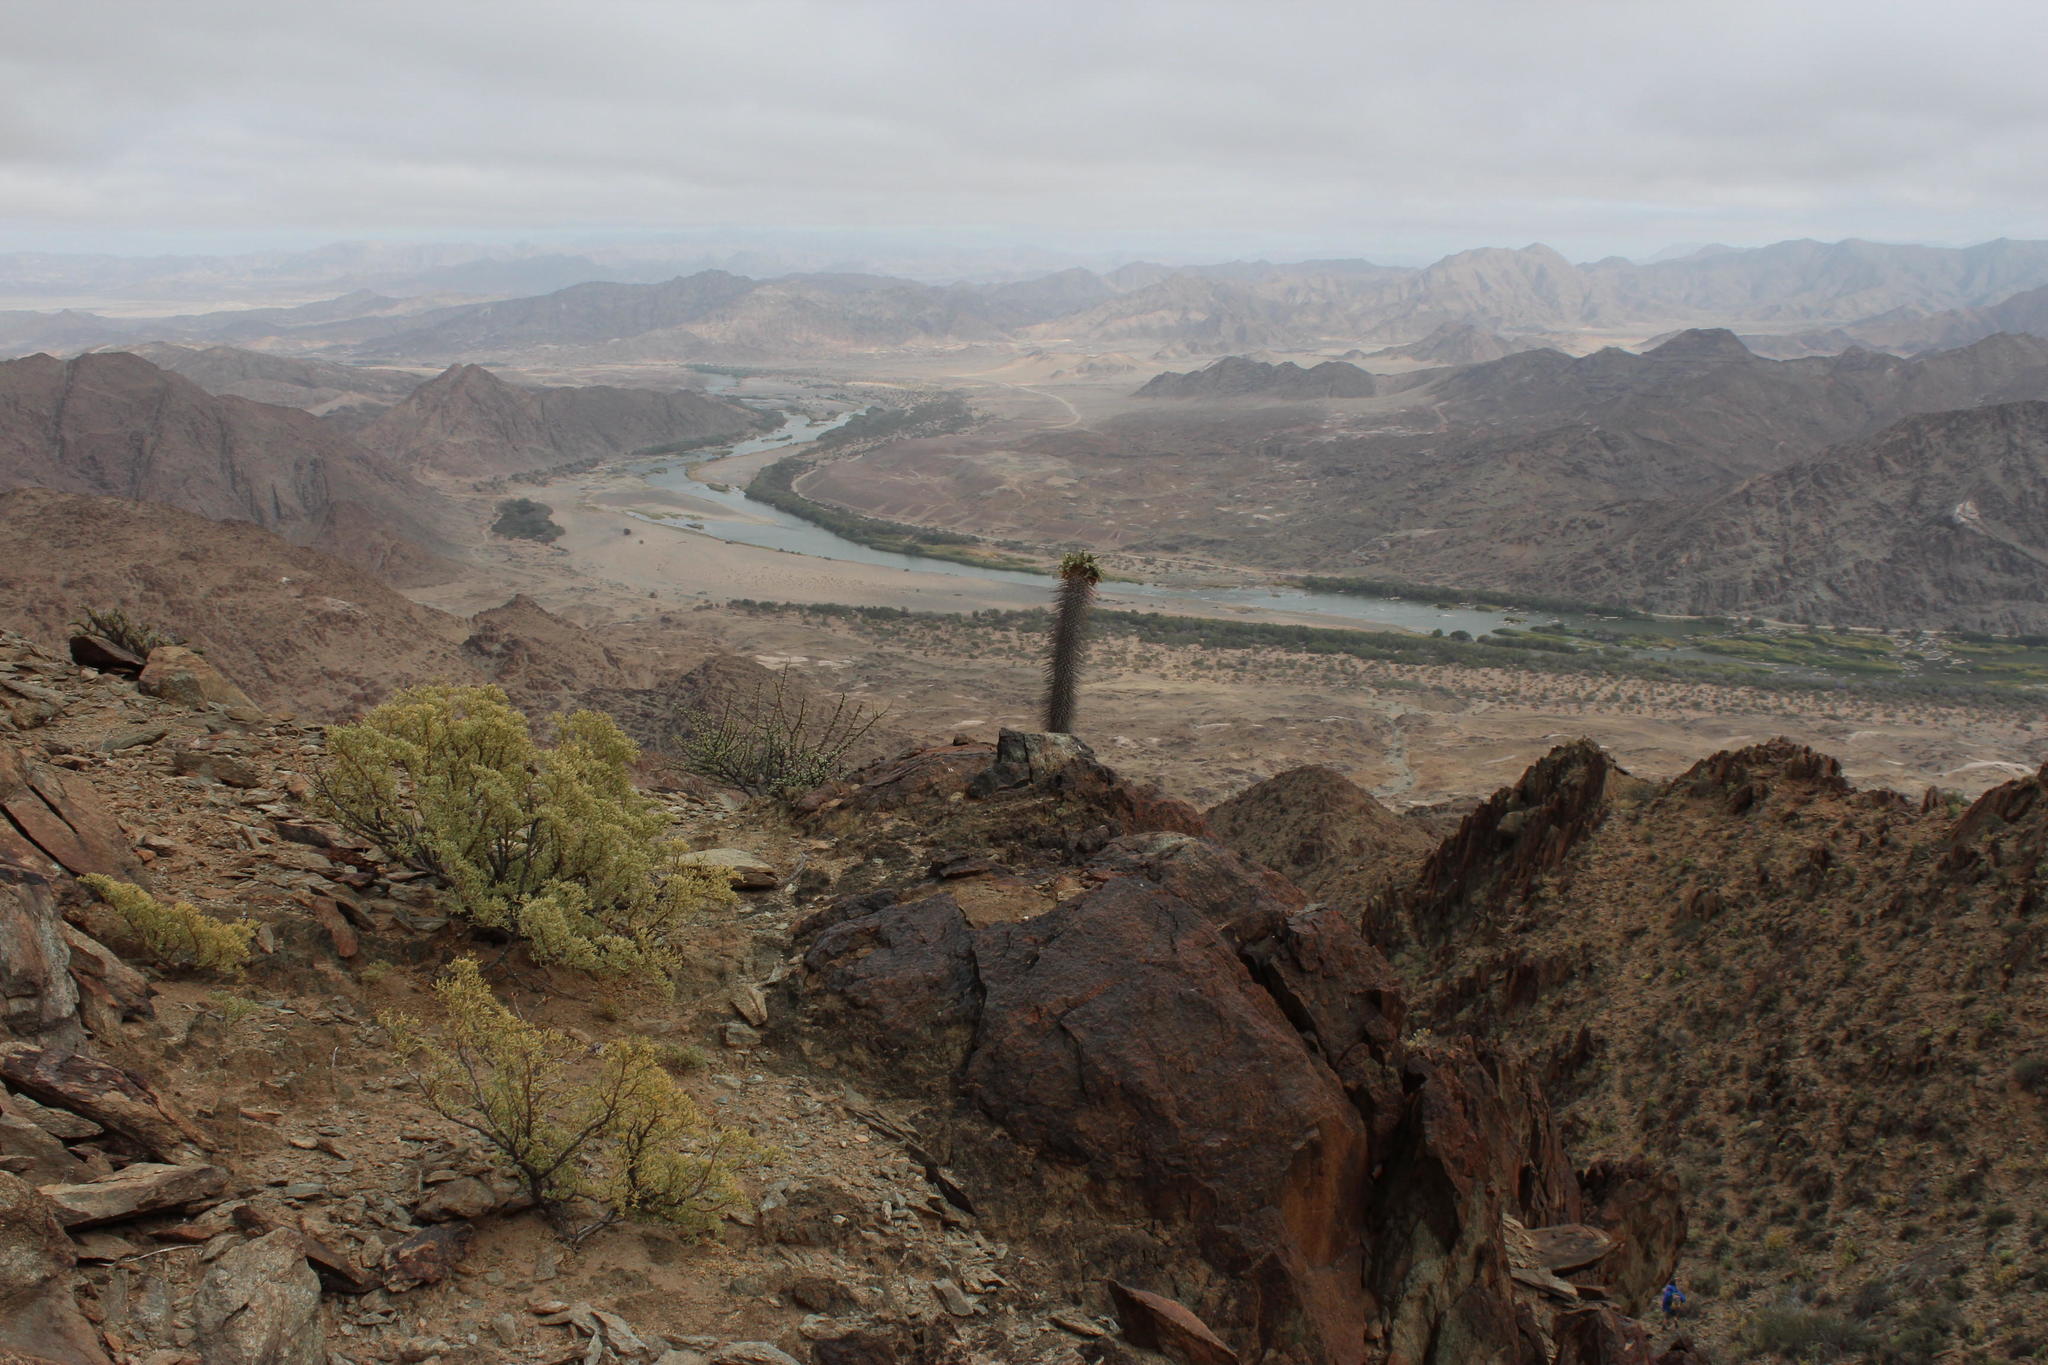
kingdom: Plantae
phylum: Tracheophyta
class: Magnoliopsida
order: Gentianales
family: Apocynaceae
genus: Pachypodium
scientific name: Pachypodium namaquanum
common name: Elephant's trunk
